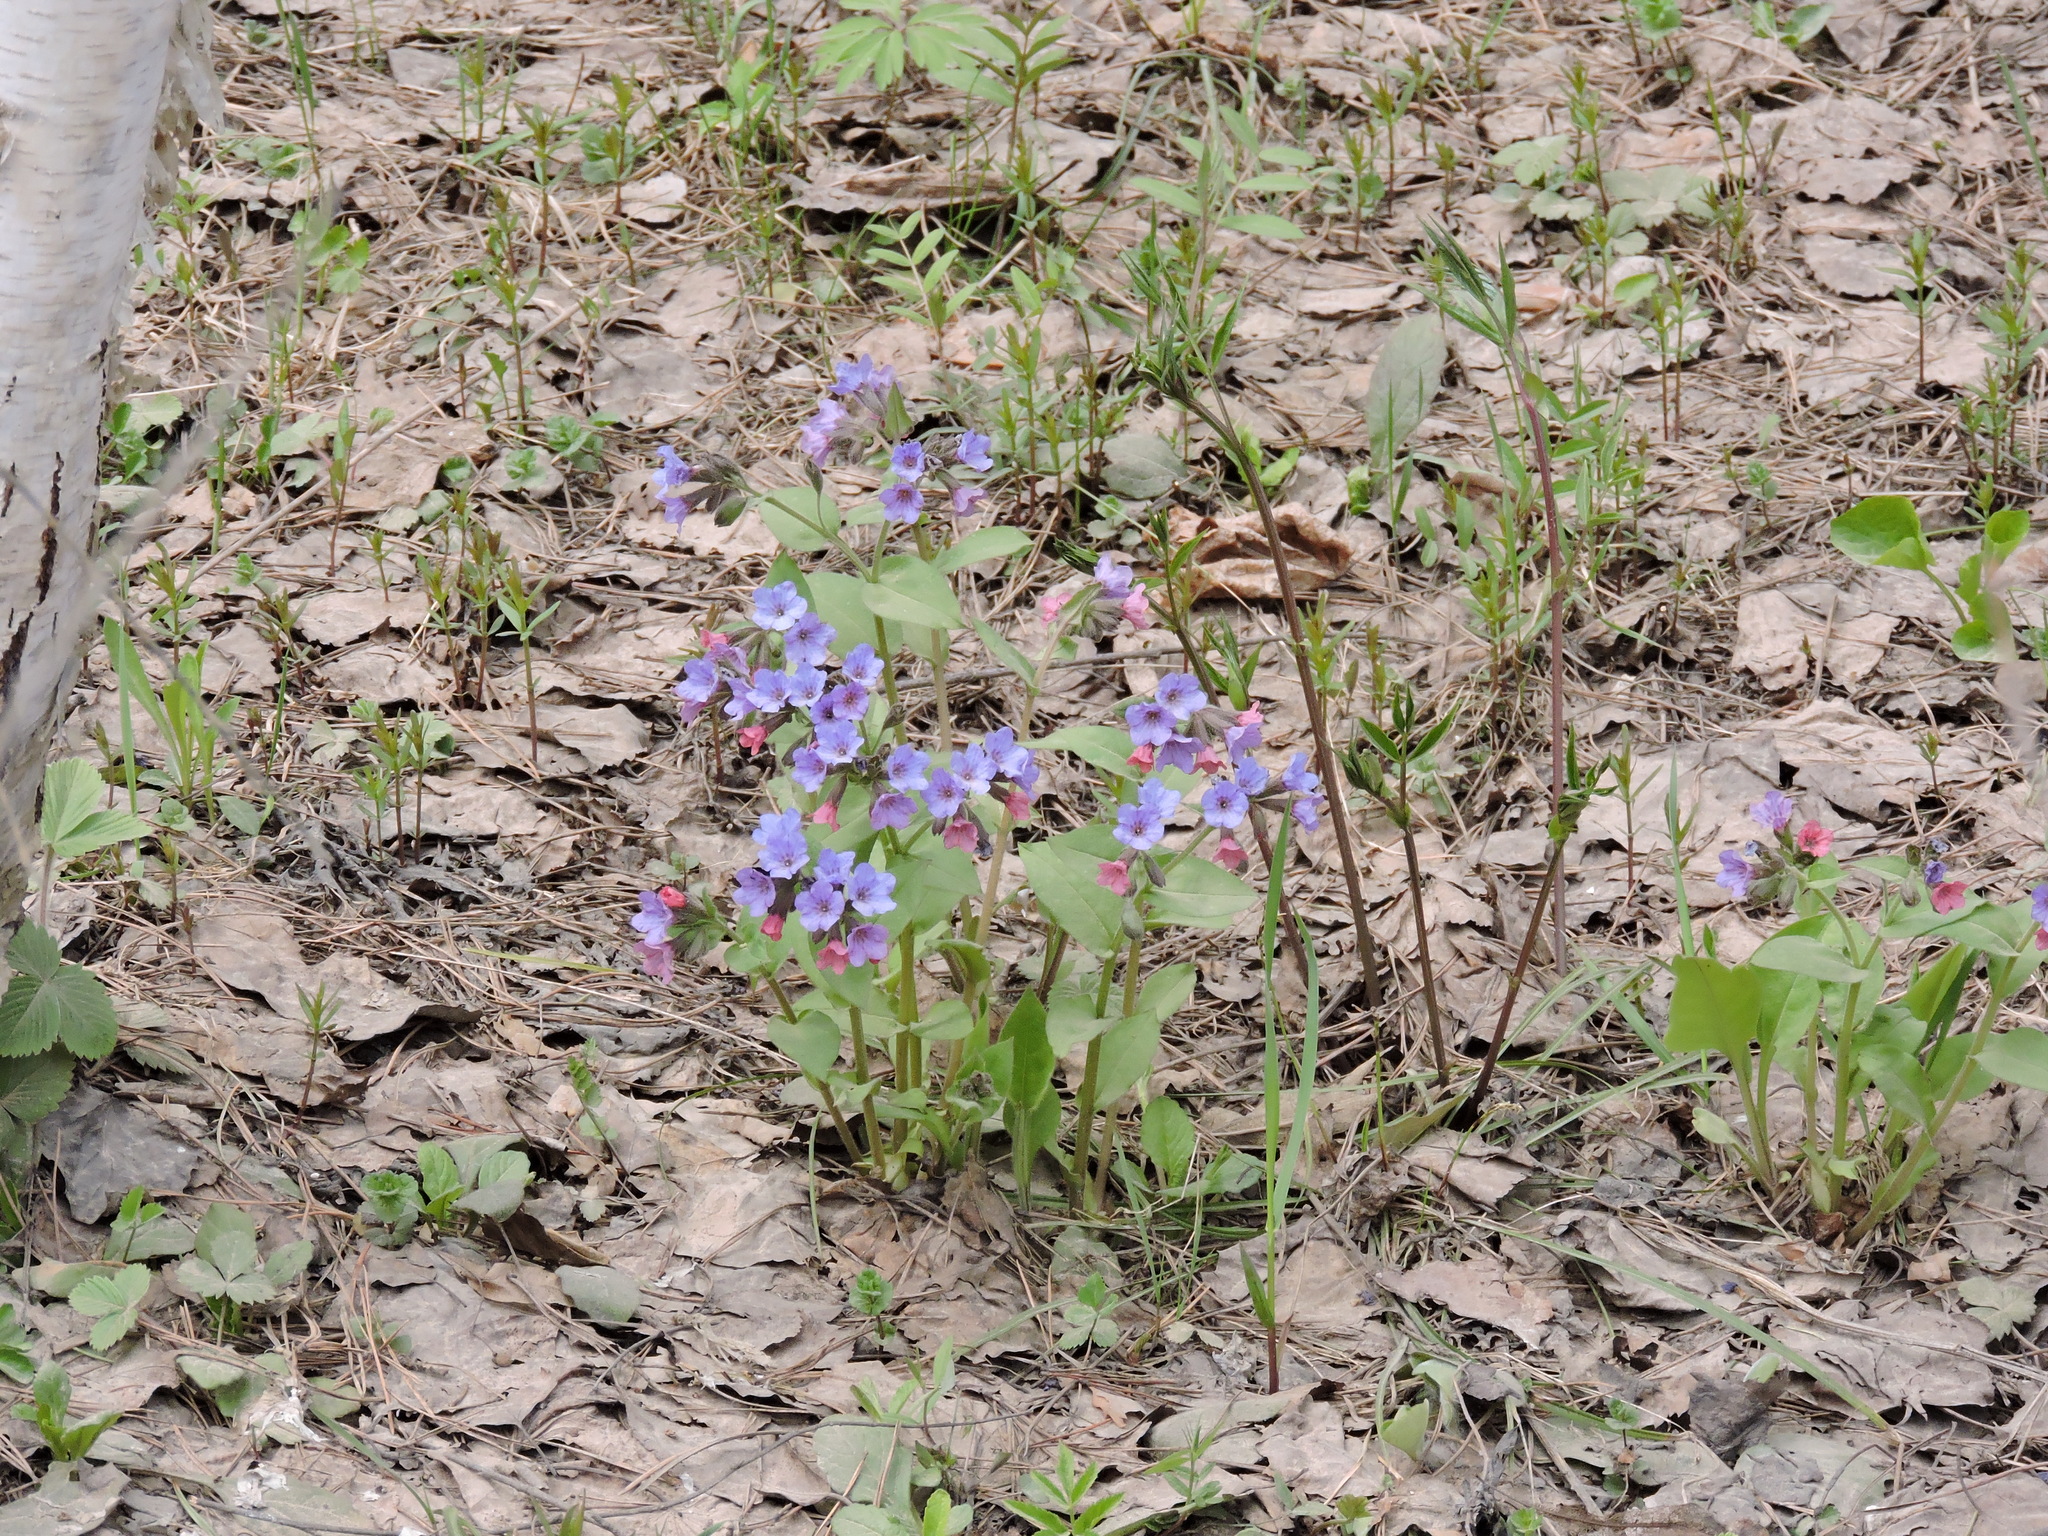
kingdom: Plantae
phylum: Tracheophyta
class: Magnoliopsida
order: Boraginales
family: Boraginaceae
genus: Pulmonaria
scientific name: Pulmonaria obscura
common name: Suffolk lungwort
